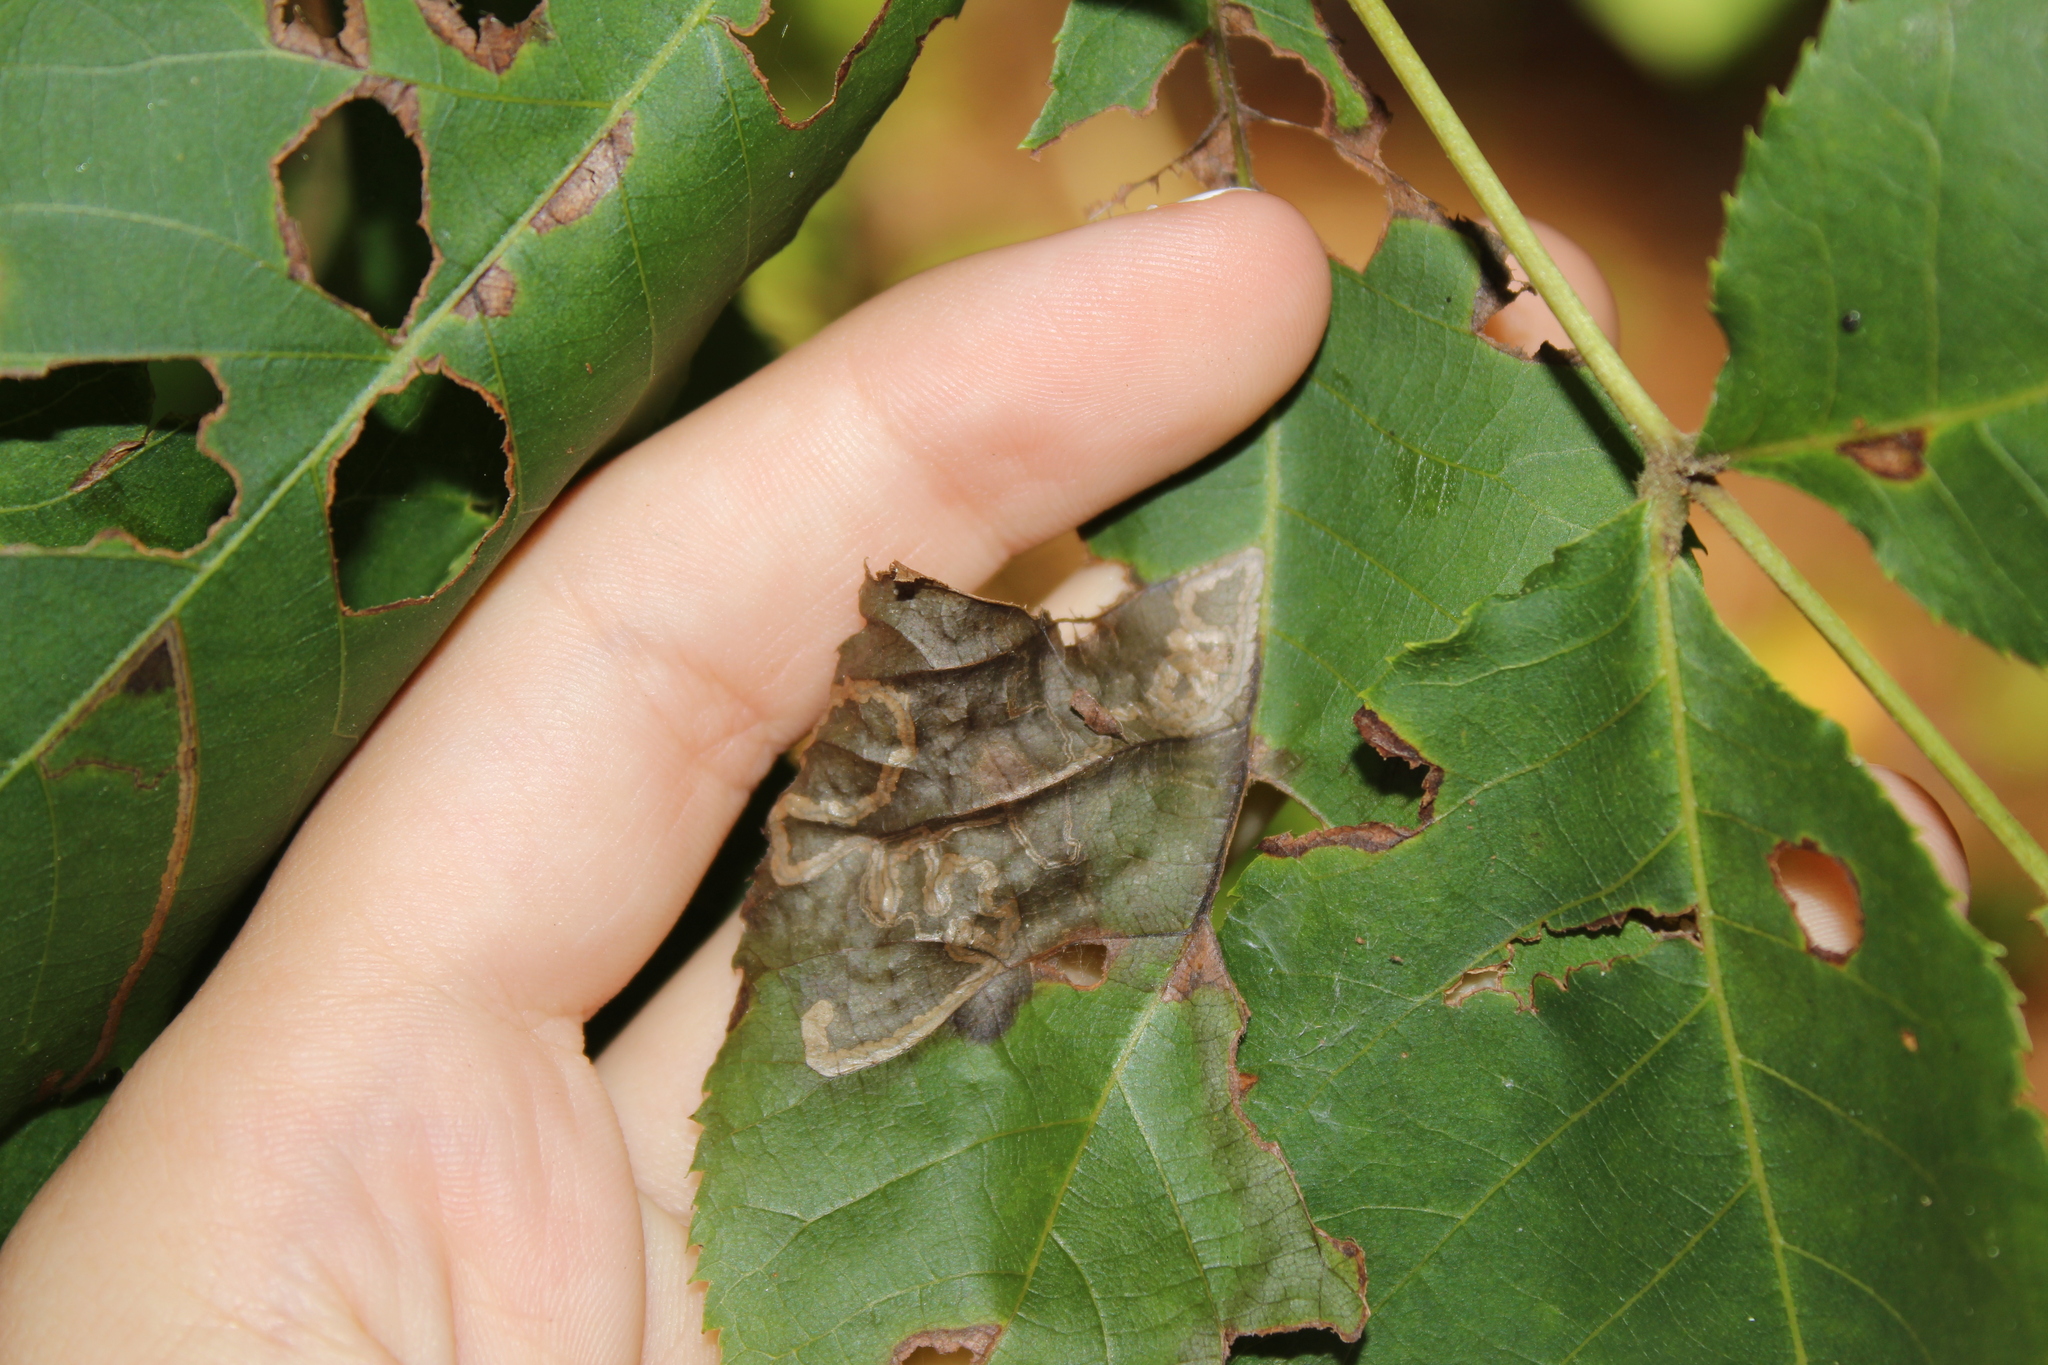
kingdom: Animalia
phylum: Arthropoda
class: Insecta
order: Lepidoptera
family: Nepticulidae
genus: Stigmella
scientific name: Stigmella caryaefoliella
